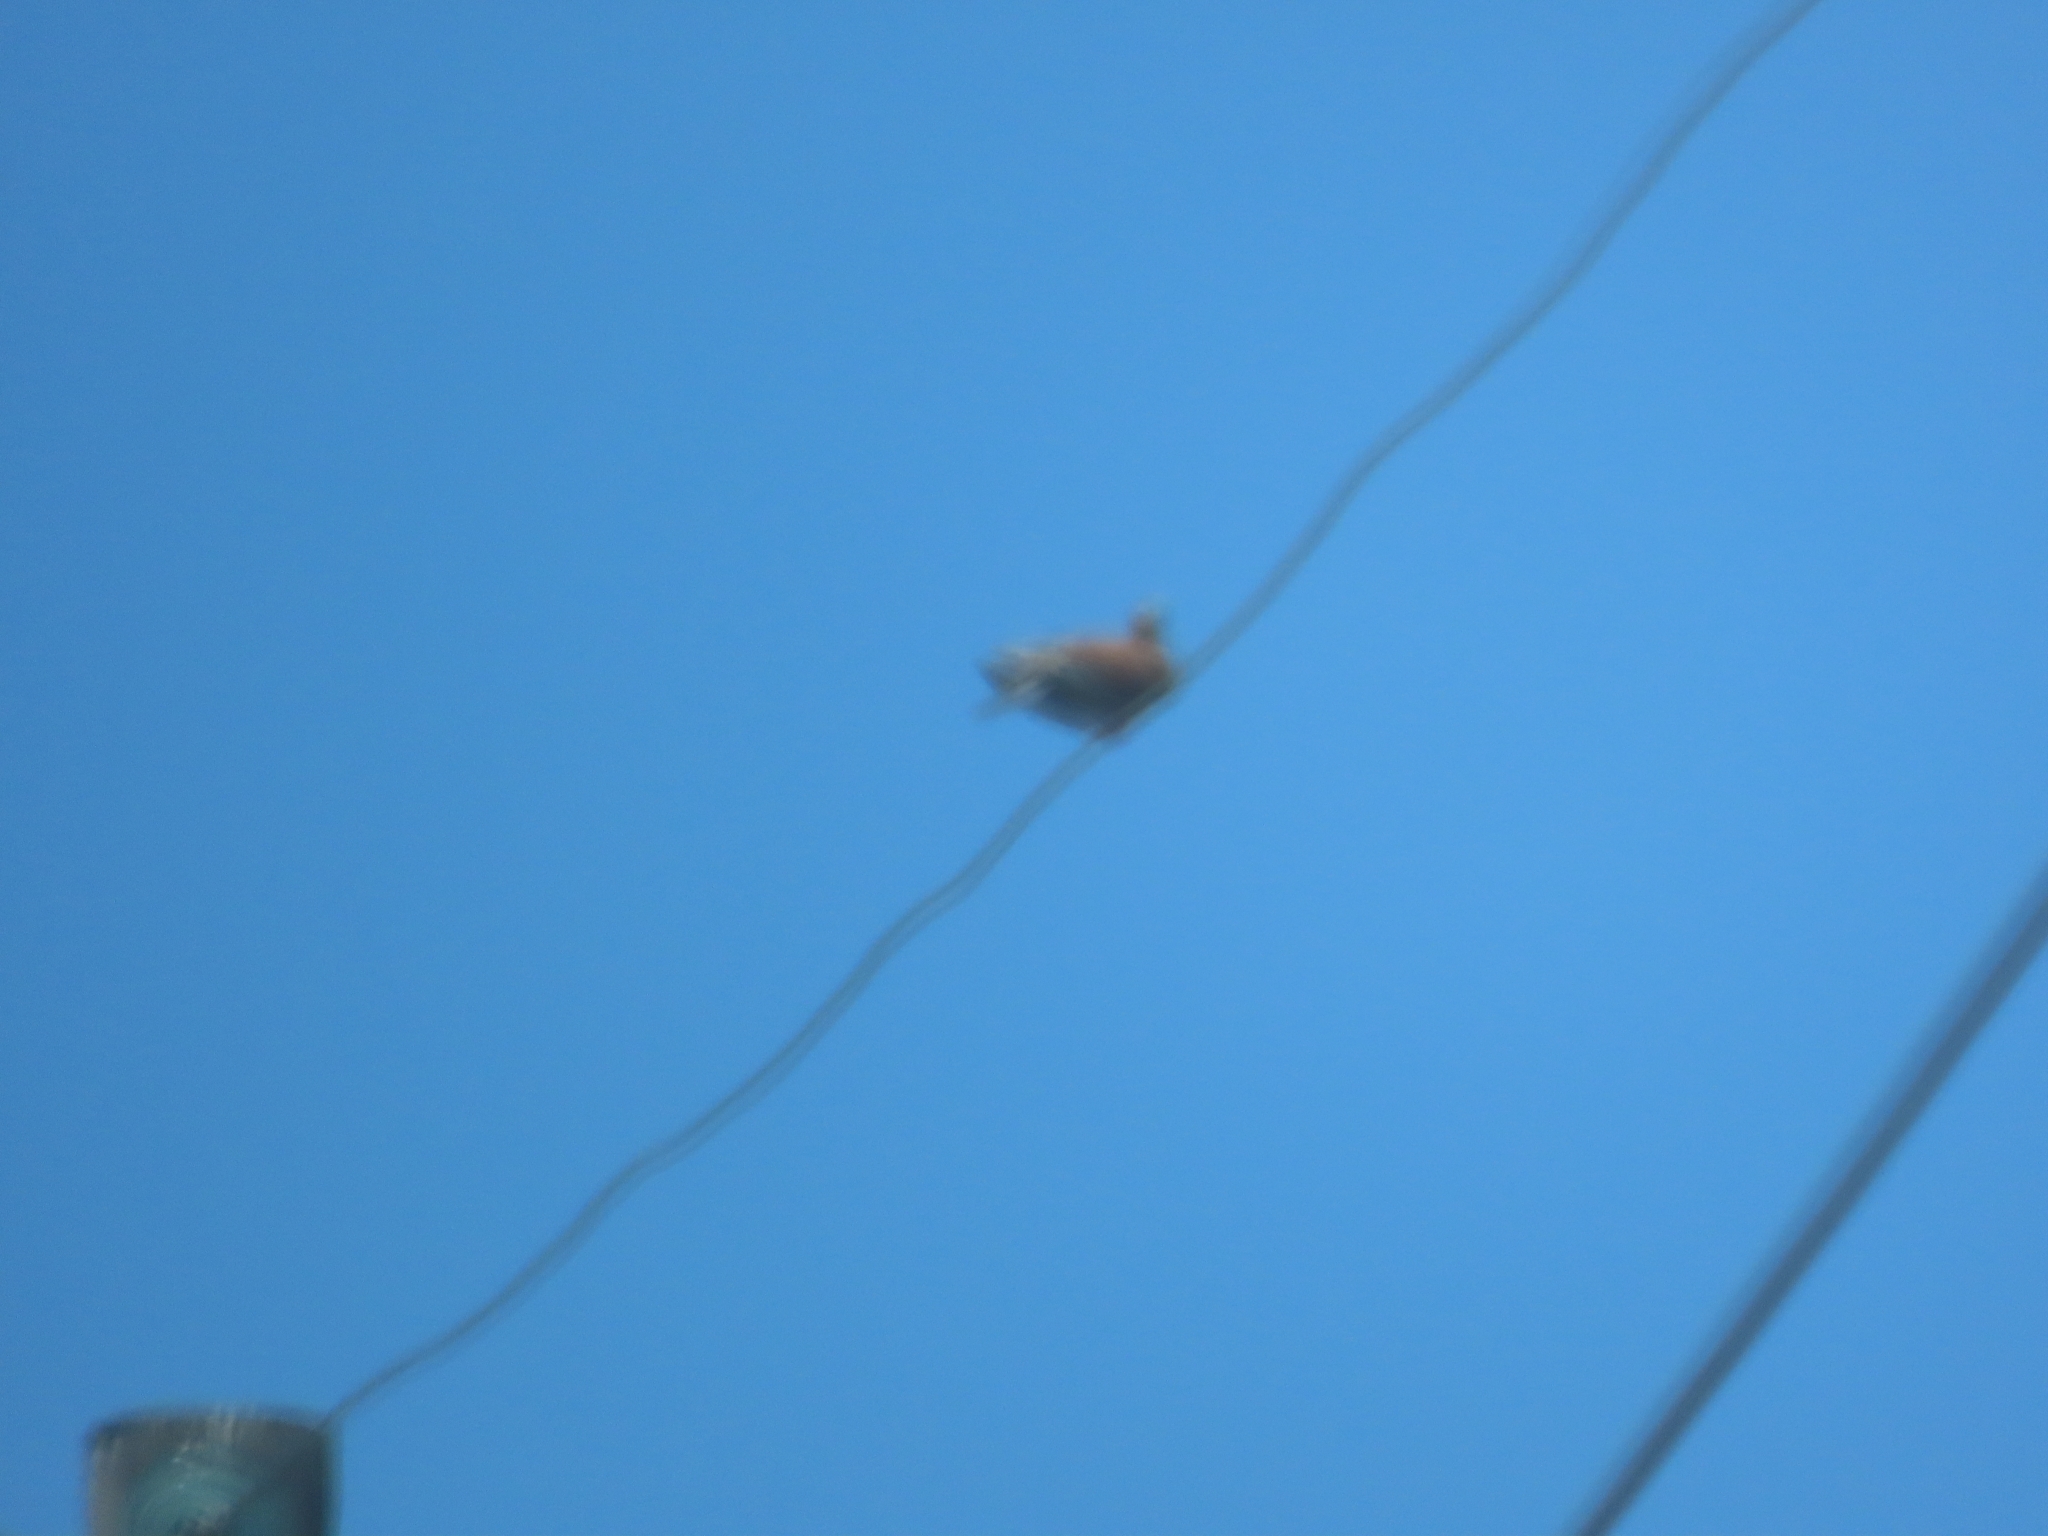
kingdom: Animalia
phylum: Chordata
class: Aves
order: Columbiformes
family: Columbidae
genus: Columba
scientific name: Columba livia
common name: Rock pigeon
